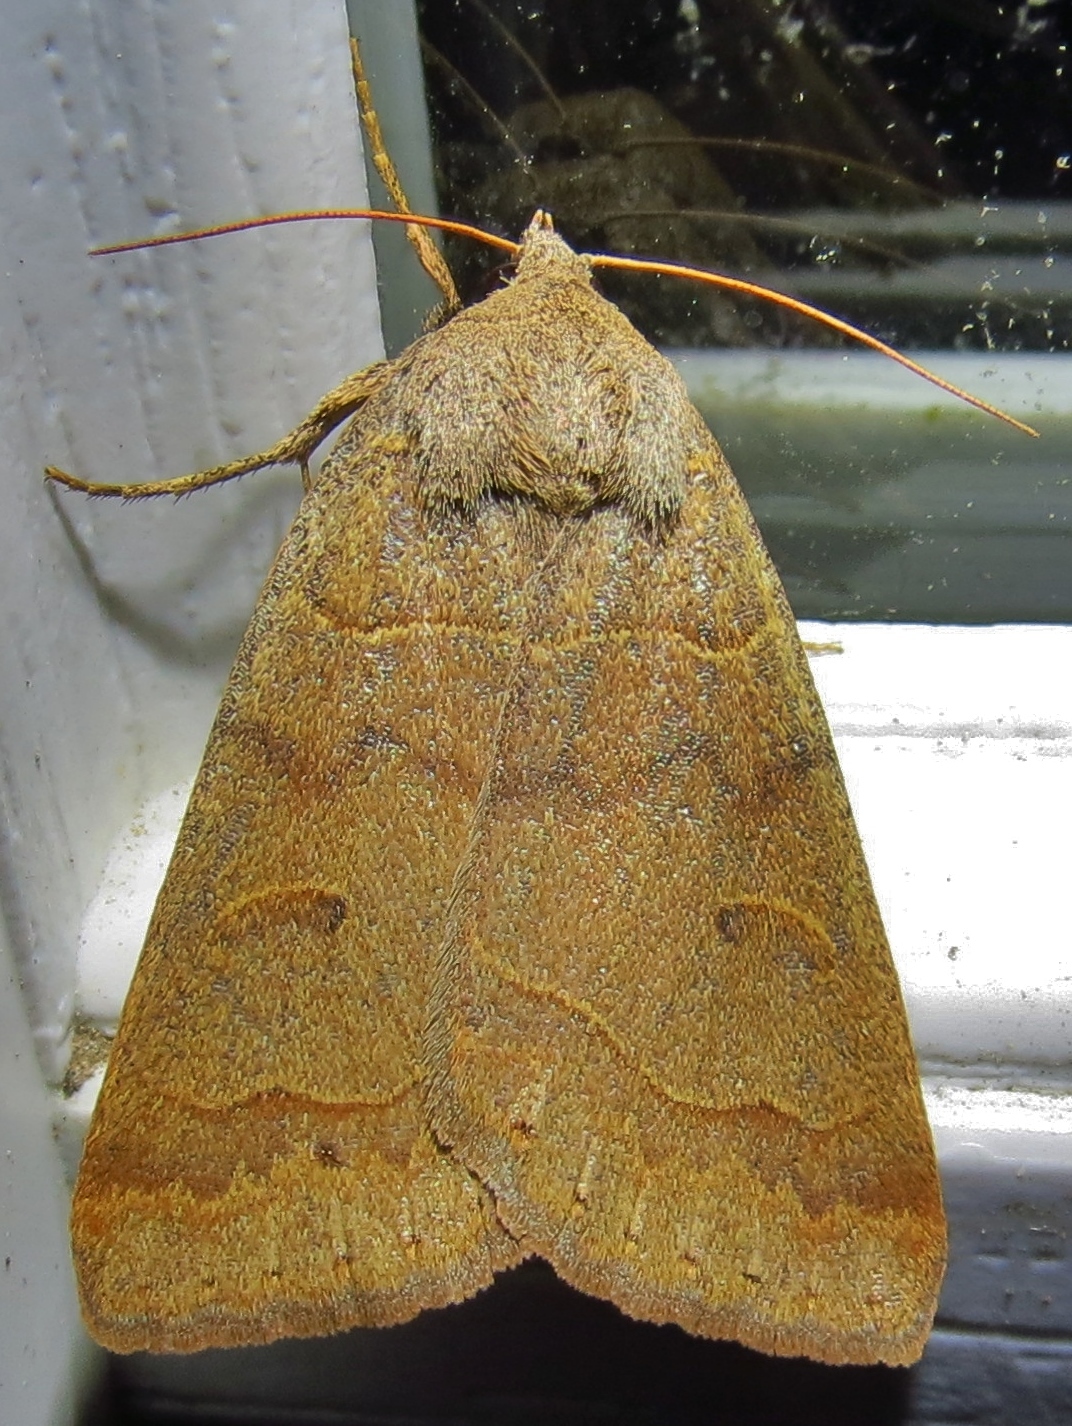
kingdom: Animalia
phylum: Arthropoda
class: Insecta
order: Lepidoptera
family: Erebidae
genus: Phoberia
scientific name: Phoberia atomaris
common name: Common oak moth
